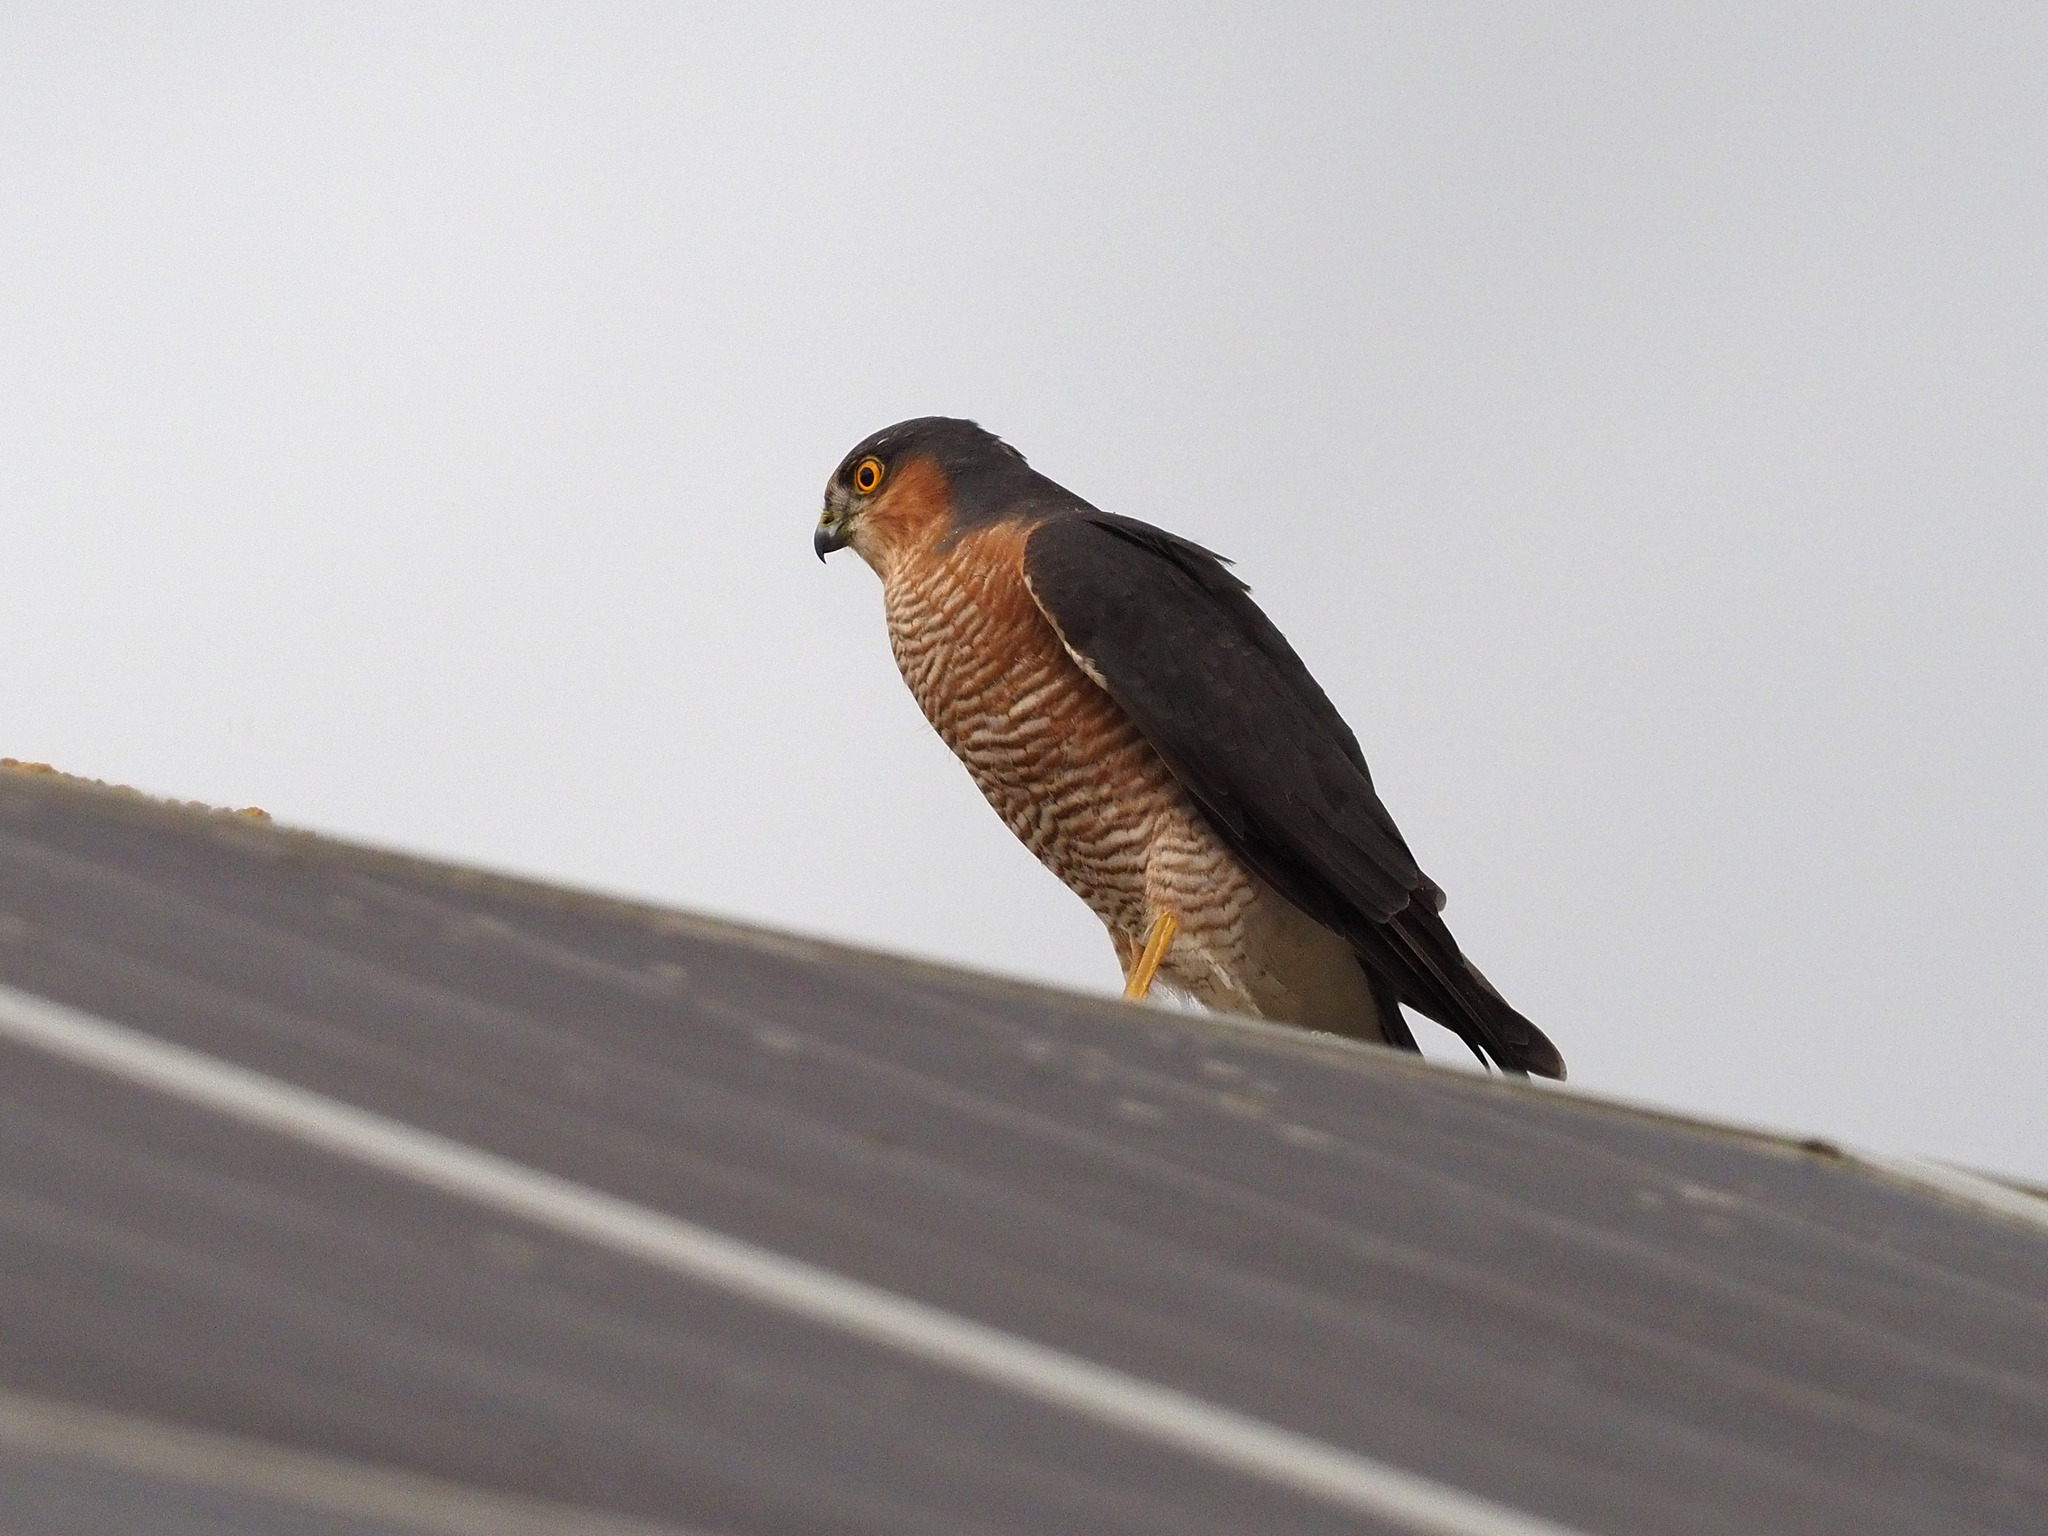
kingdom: Animalia
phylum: Chordata
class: Aves
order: Accipitriformes
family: Accipitridae
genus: Accipiter
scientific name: Accipiter nisus
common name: Eurasian sparrowhawk
